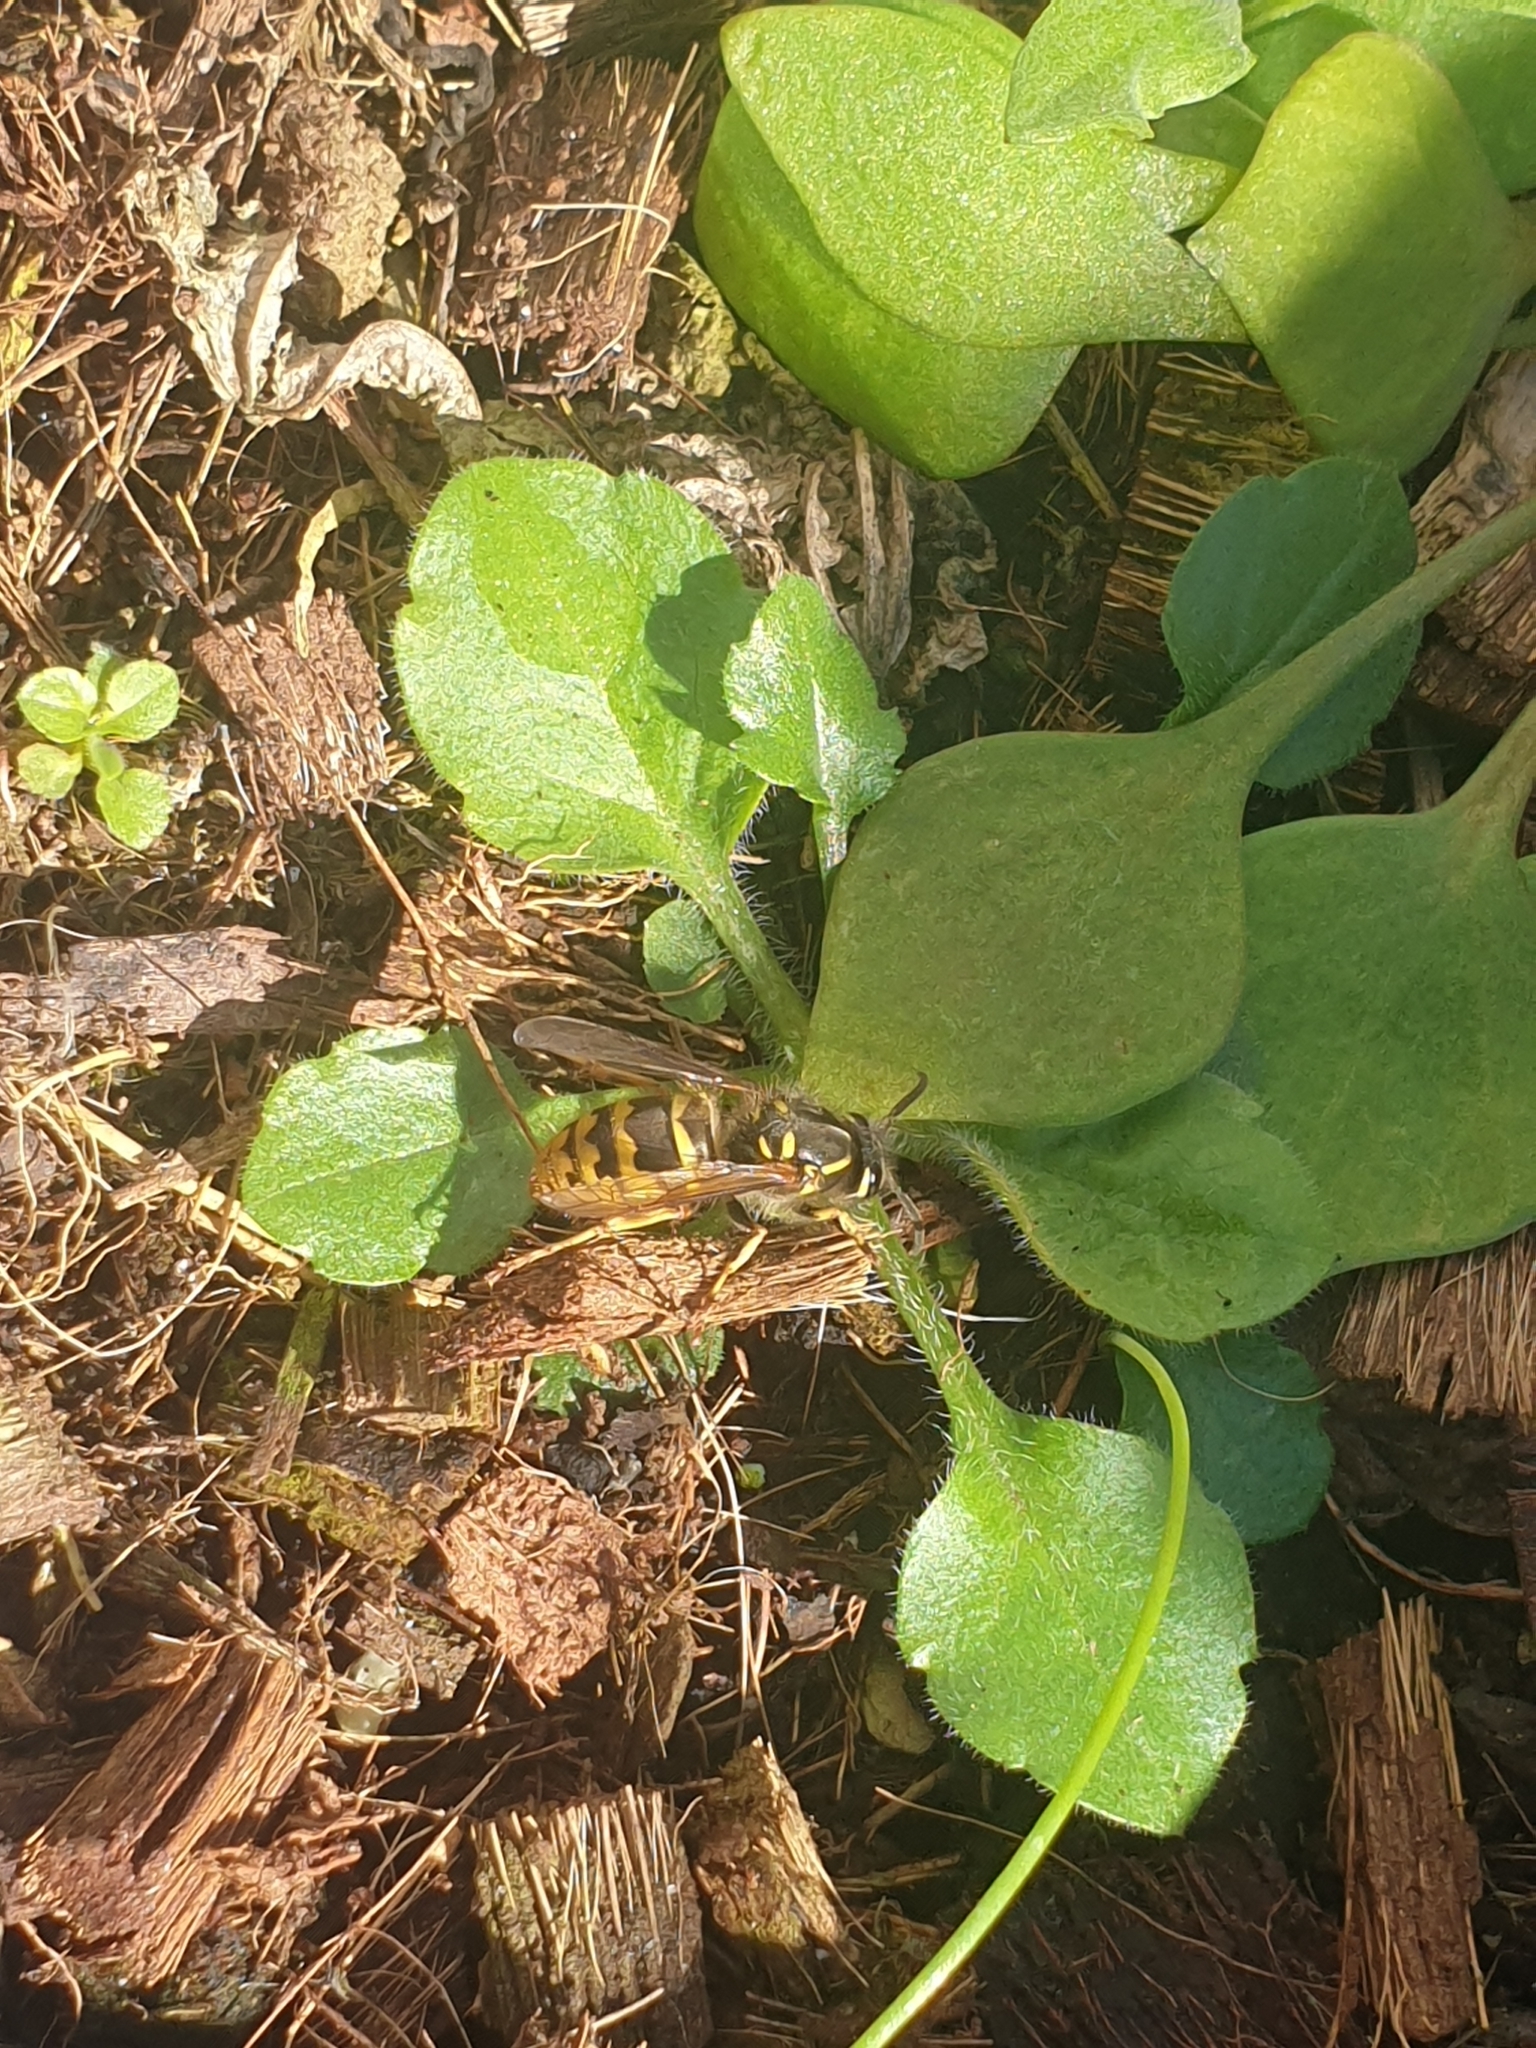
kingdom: Animalia
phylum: Arthropoda
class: Insecta
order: Hymenoptera
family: Vespidae
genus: Vespula
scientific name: Vespula vulgaris
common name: Common wasp
